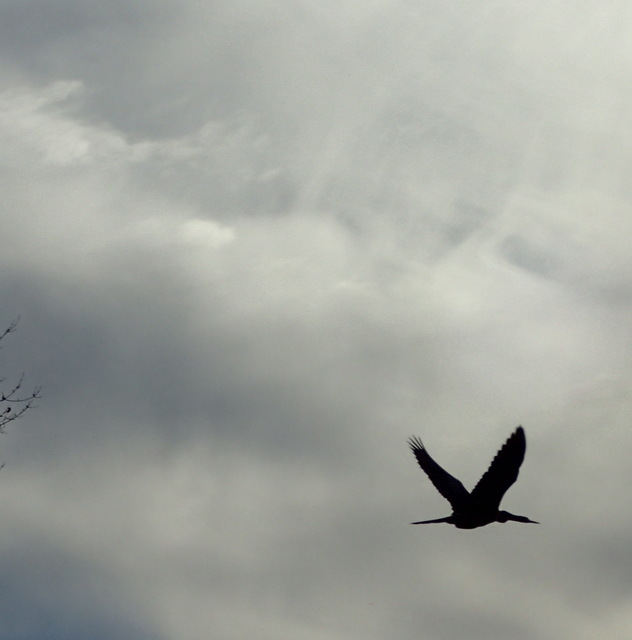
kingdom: Animalia
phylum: Chordata
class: Aves
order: Suliformes
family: Anhingidae
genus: Anhinga
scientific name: Anhinga anhinga
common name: Anhinga
